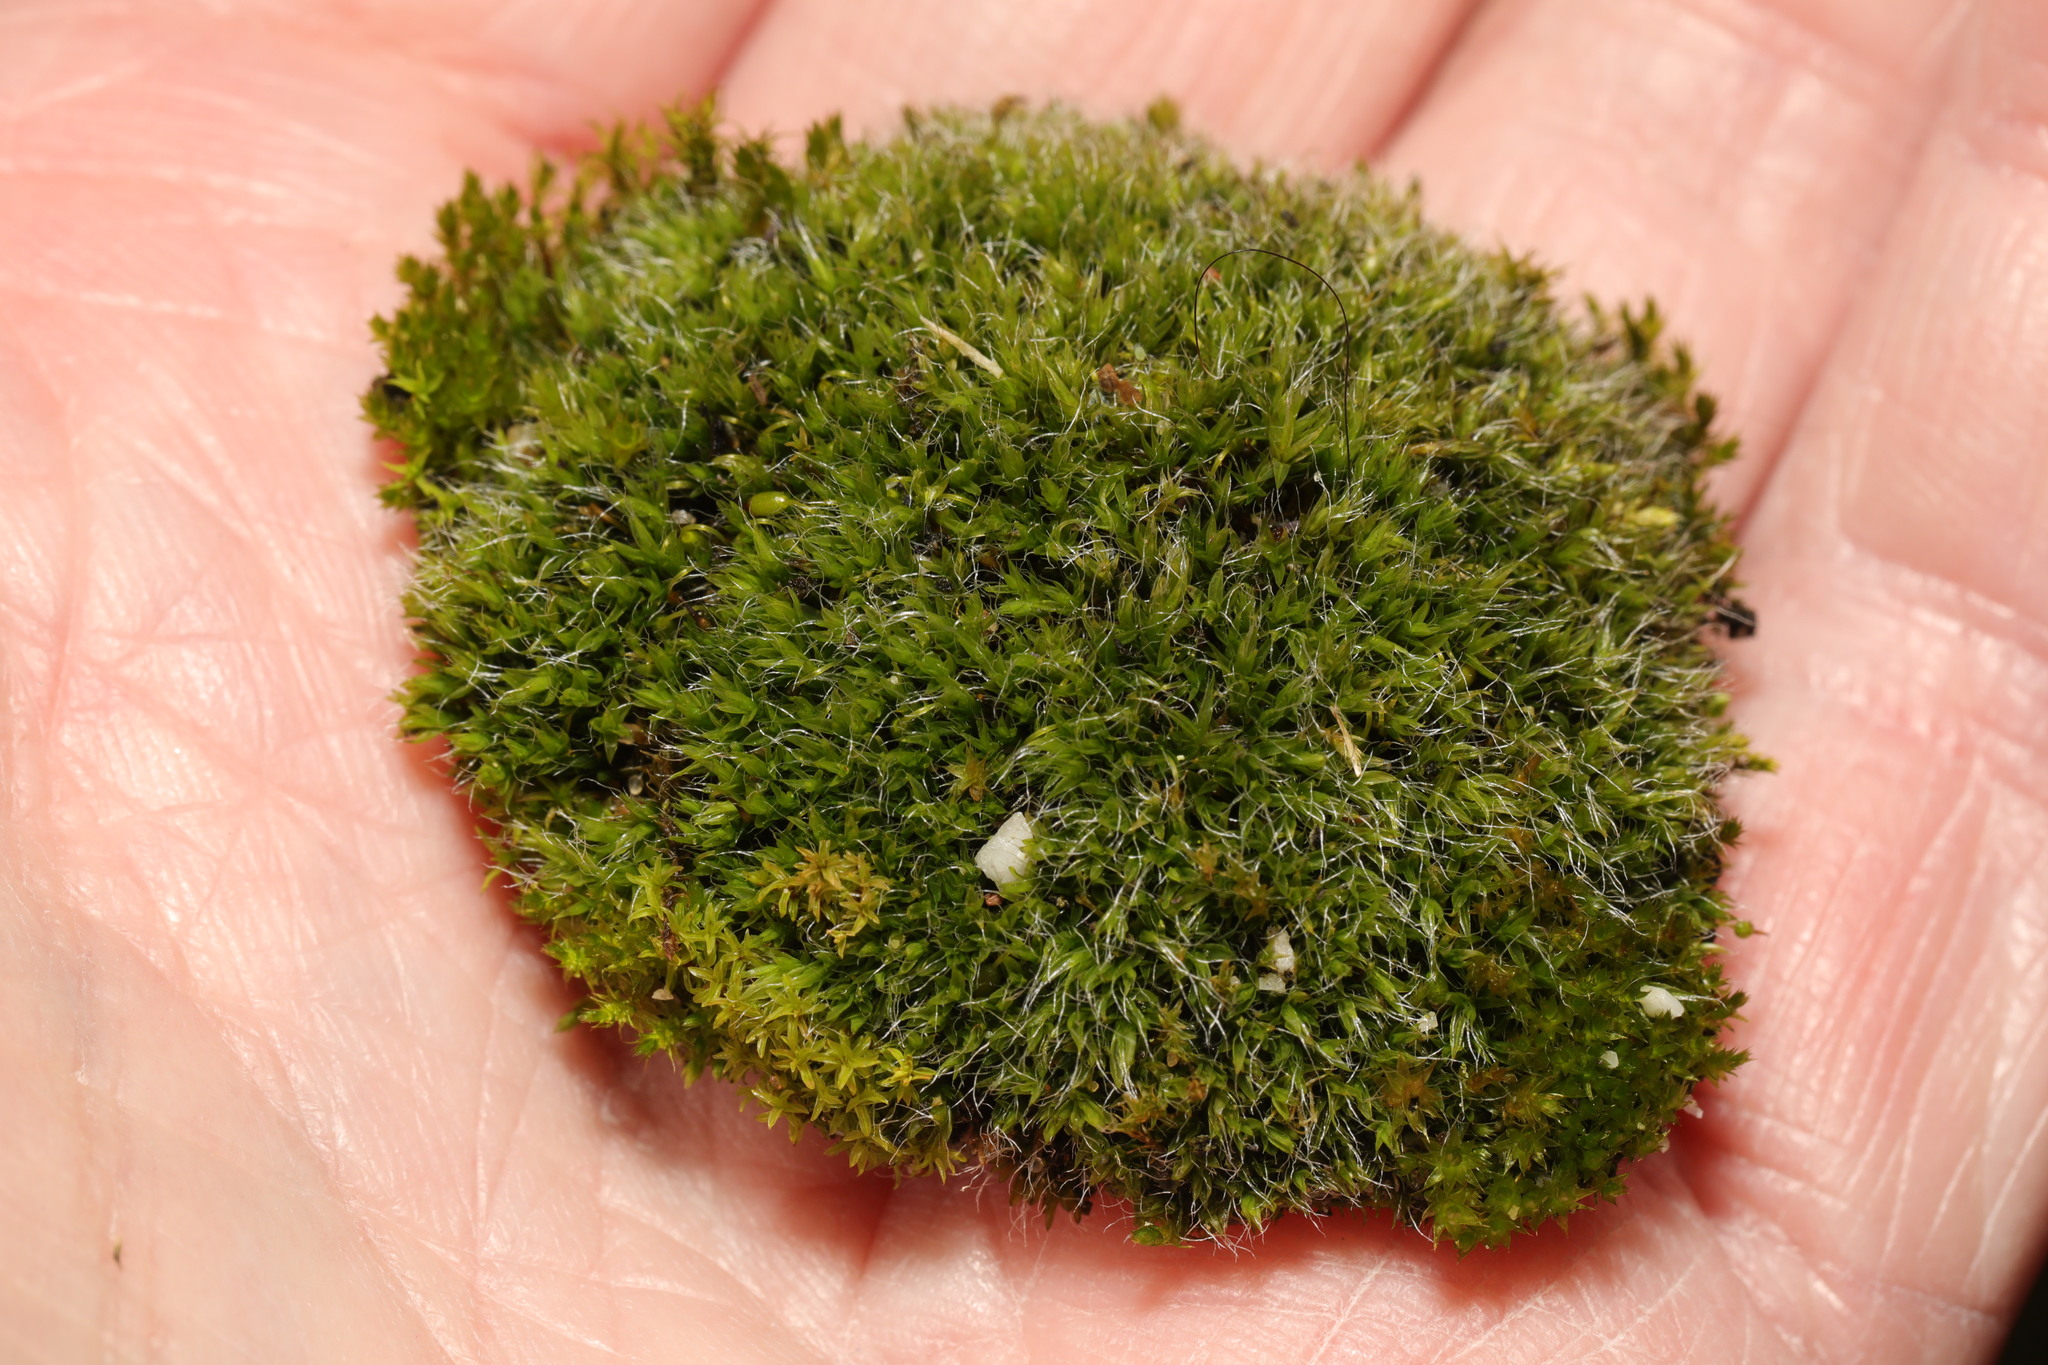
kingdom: Plantae
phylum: Bryophyta
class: Bryopsida
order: Grimmiales
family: Grimmiaceae
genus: Grimmia
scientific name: Grimmia pulvinata
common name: Grey-cushioned grimmia
